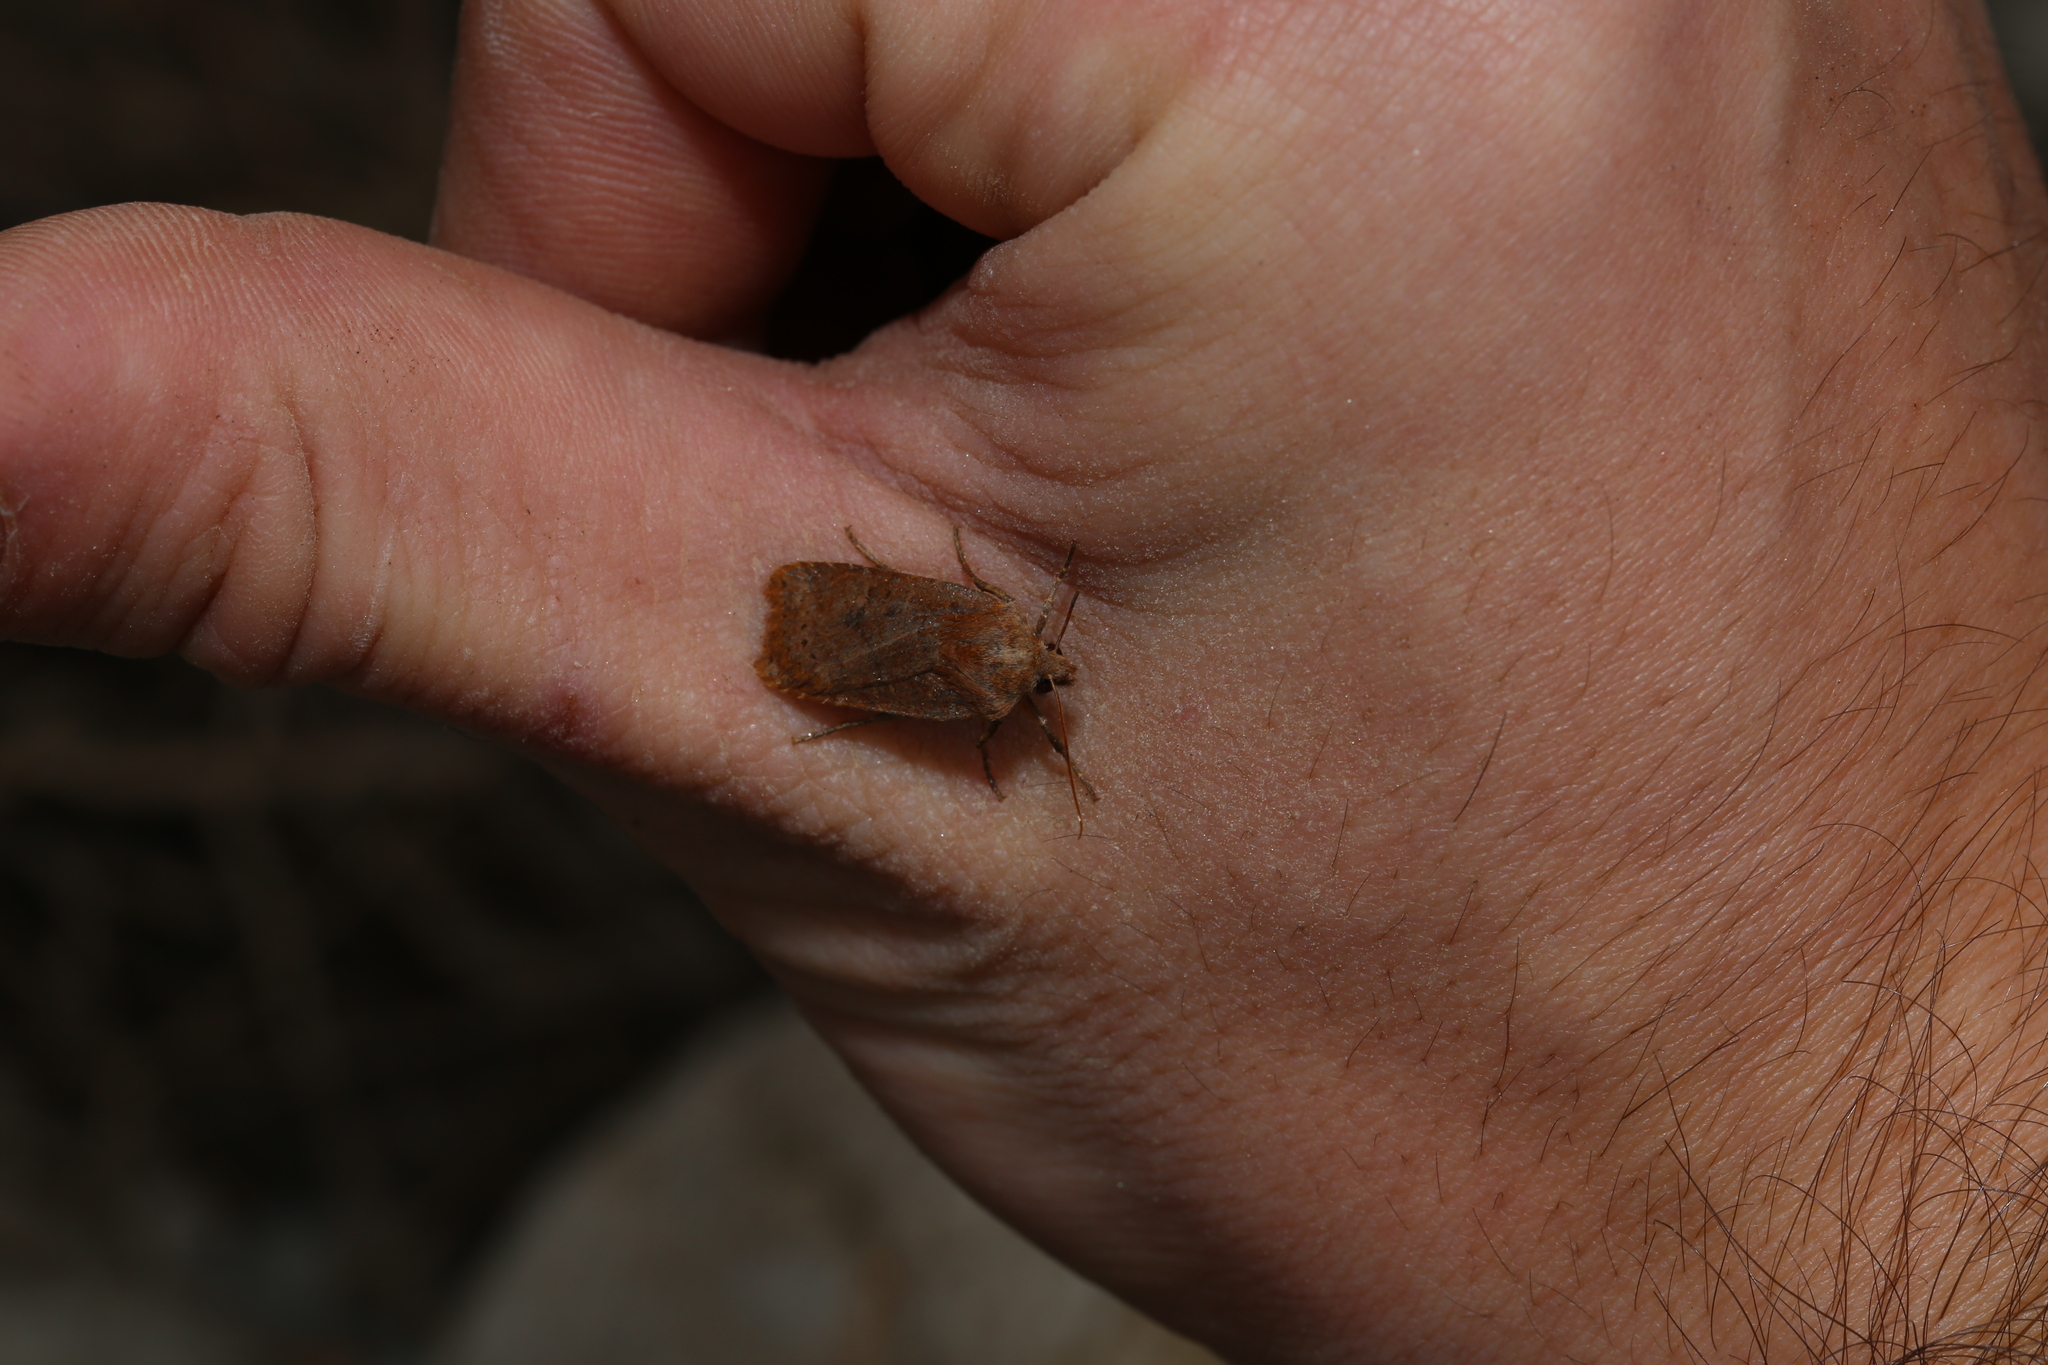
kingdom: Animalia
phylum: Arthropoda
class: Insecta
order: Lepidoptera
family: Noctuidae
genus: Conistra
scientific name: Conistra vaccinii
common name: Chestnut
